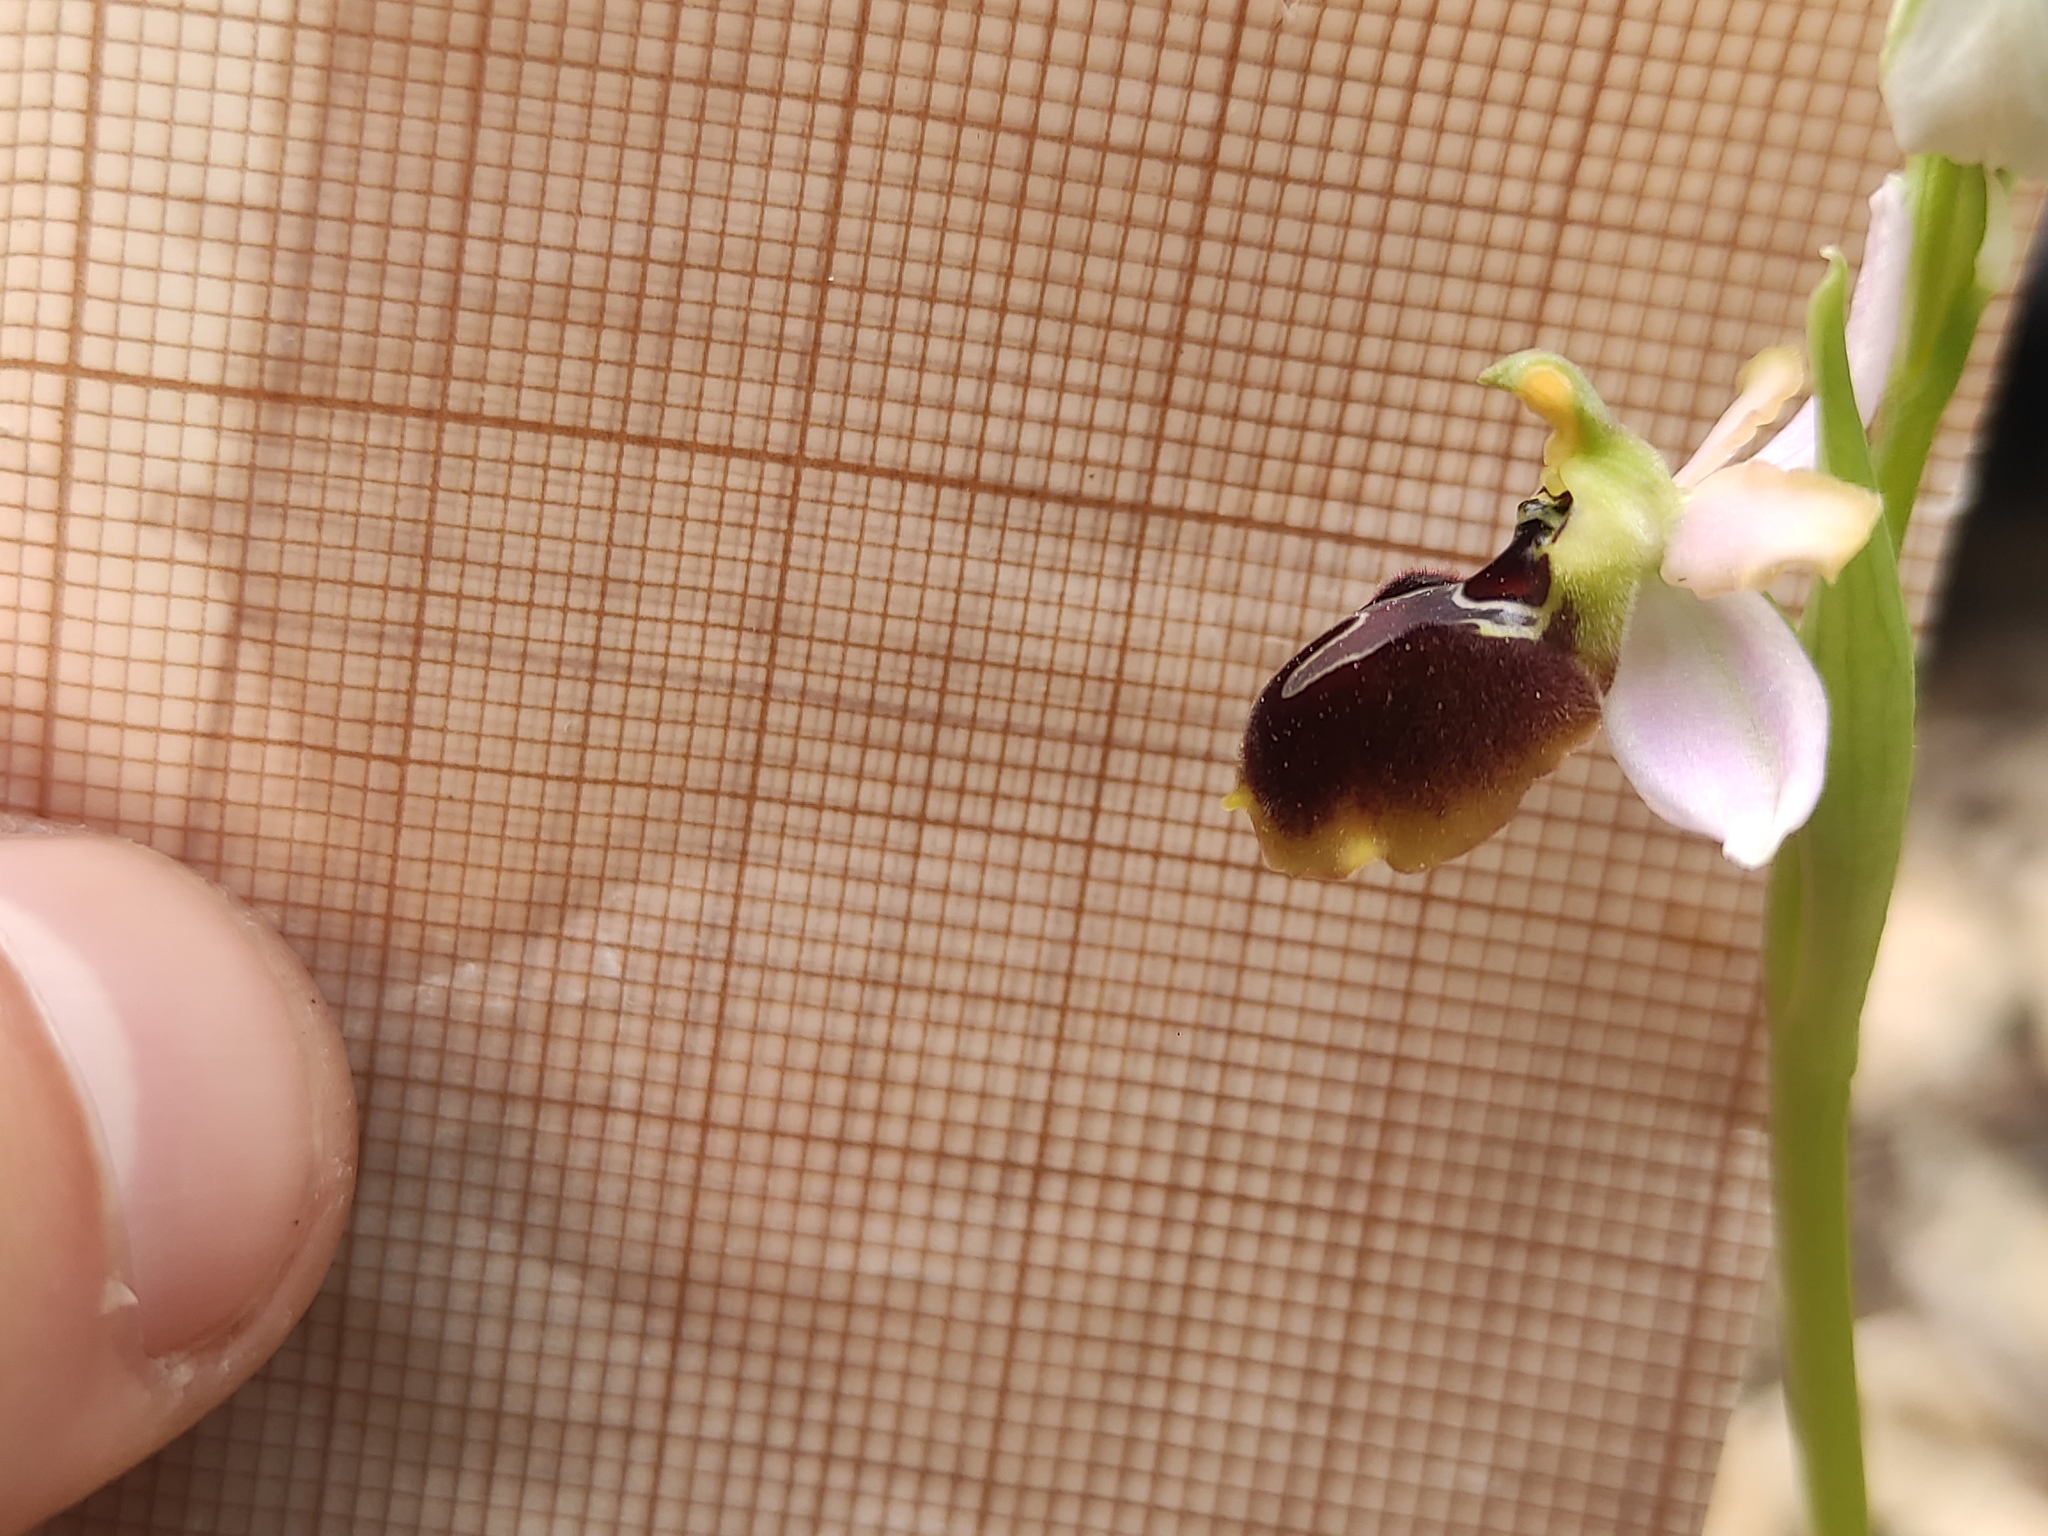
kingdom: Plantae
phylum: Tracheophyta
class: Liliopsida
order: Asparagales
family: Orchidaceae
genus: Ophrys
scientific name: Ophrys sphegodes
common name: Early spider-orchid
